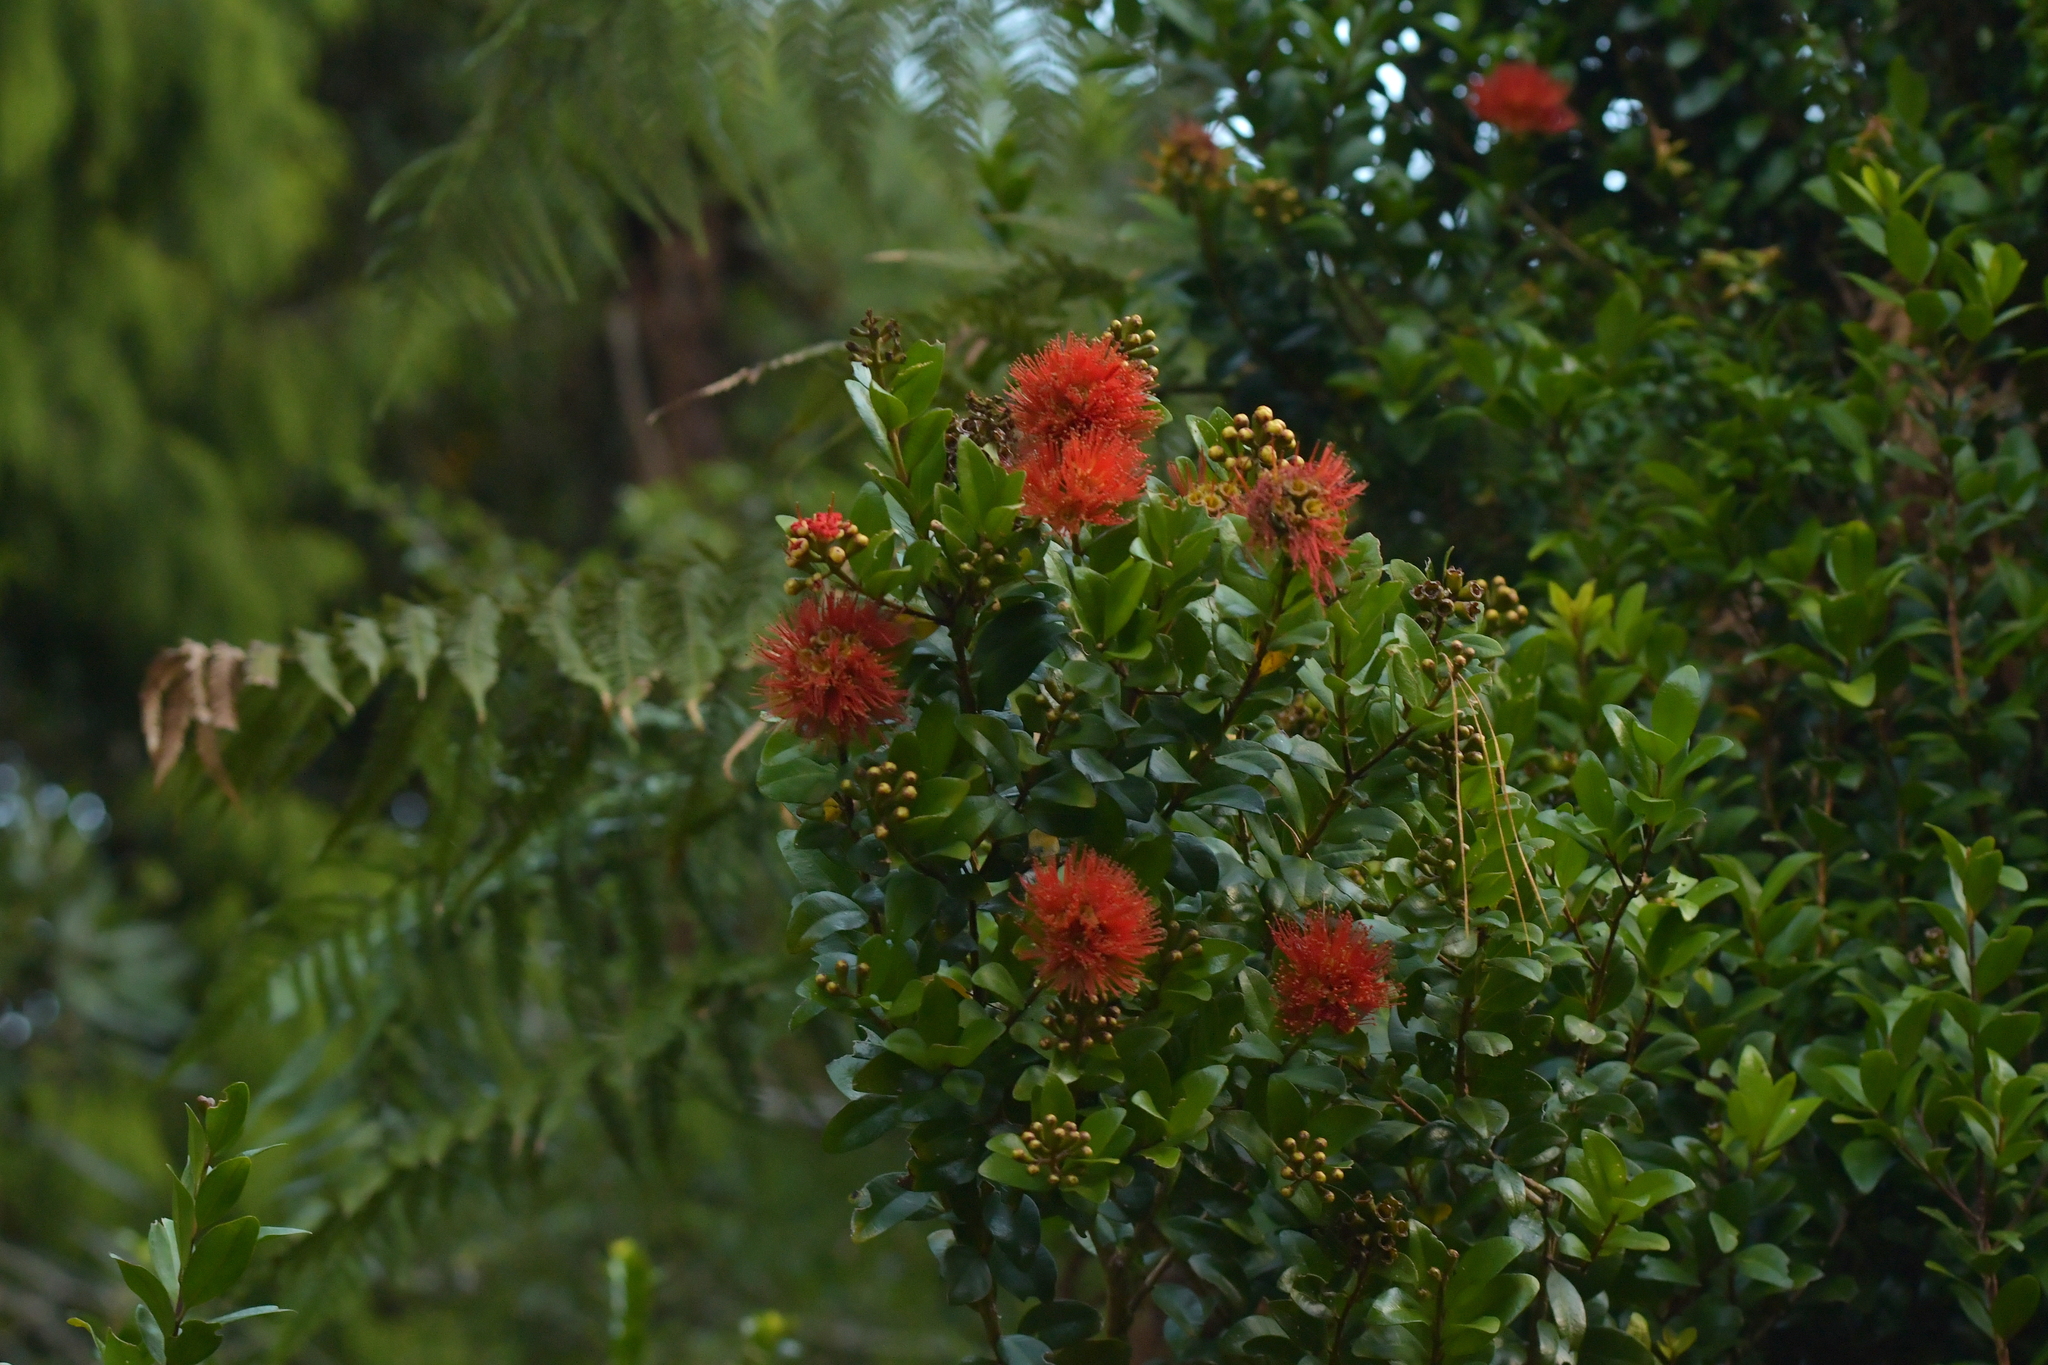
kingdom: Plantae
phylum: Tracheophyta
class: Magnoliopsida
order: Myrtales
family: Myrtaceae
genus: Metrosideros
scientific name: Metrosideros fulgens
